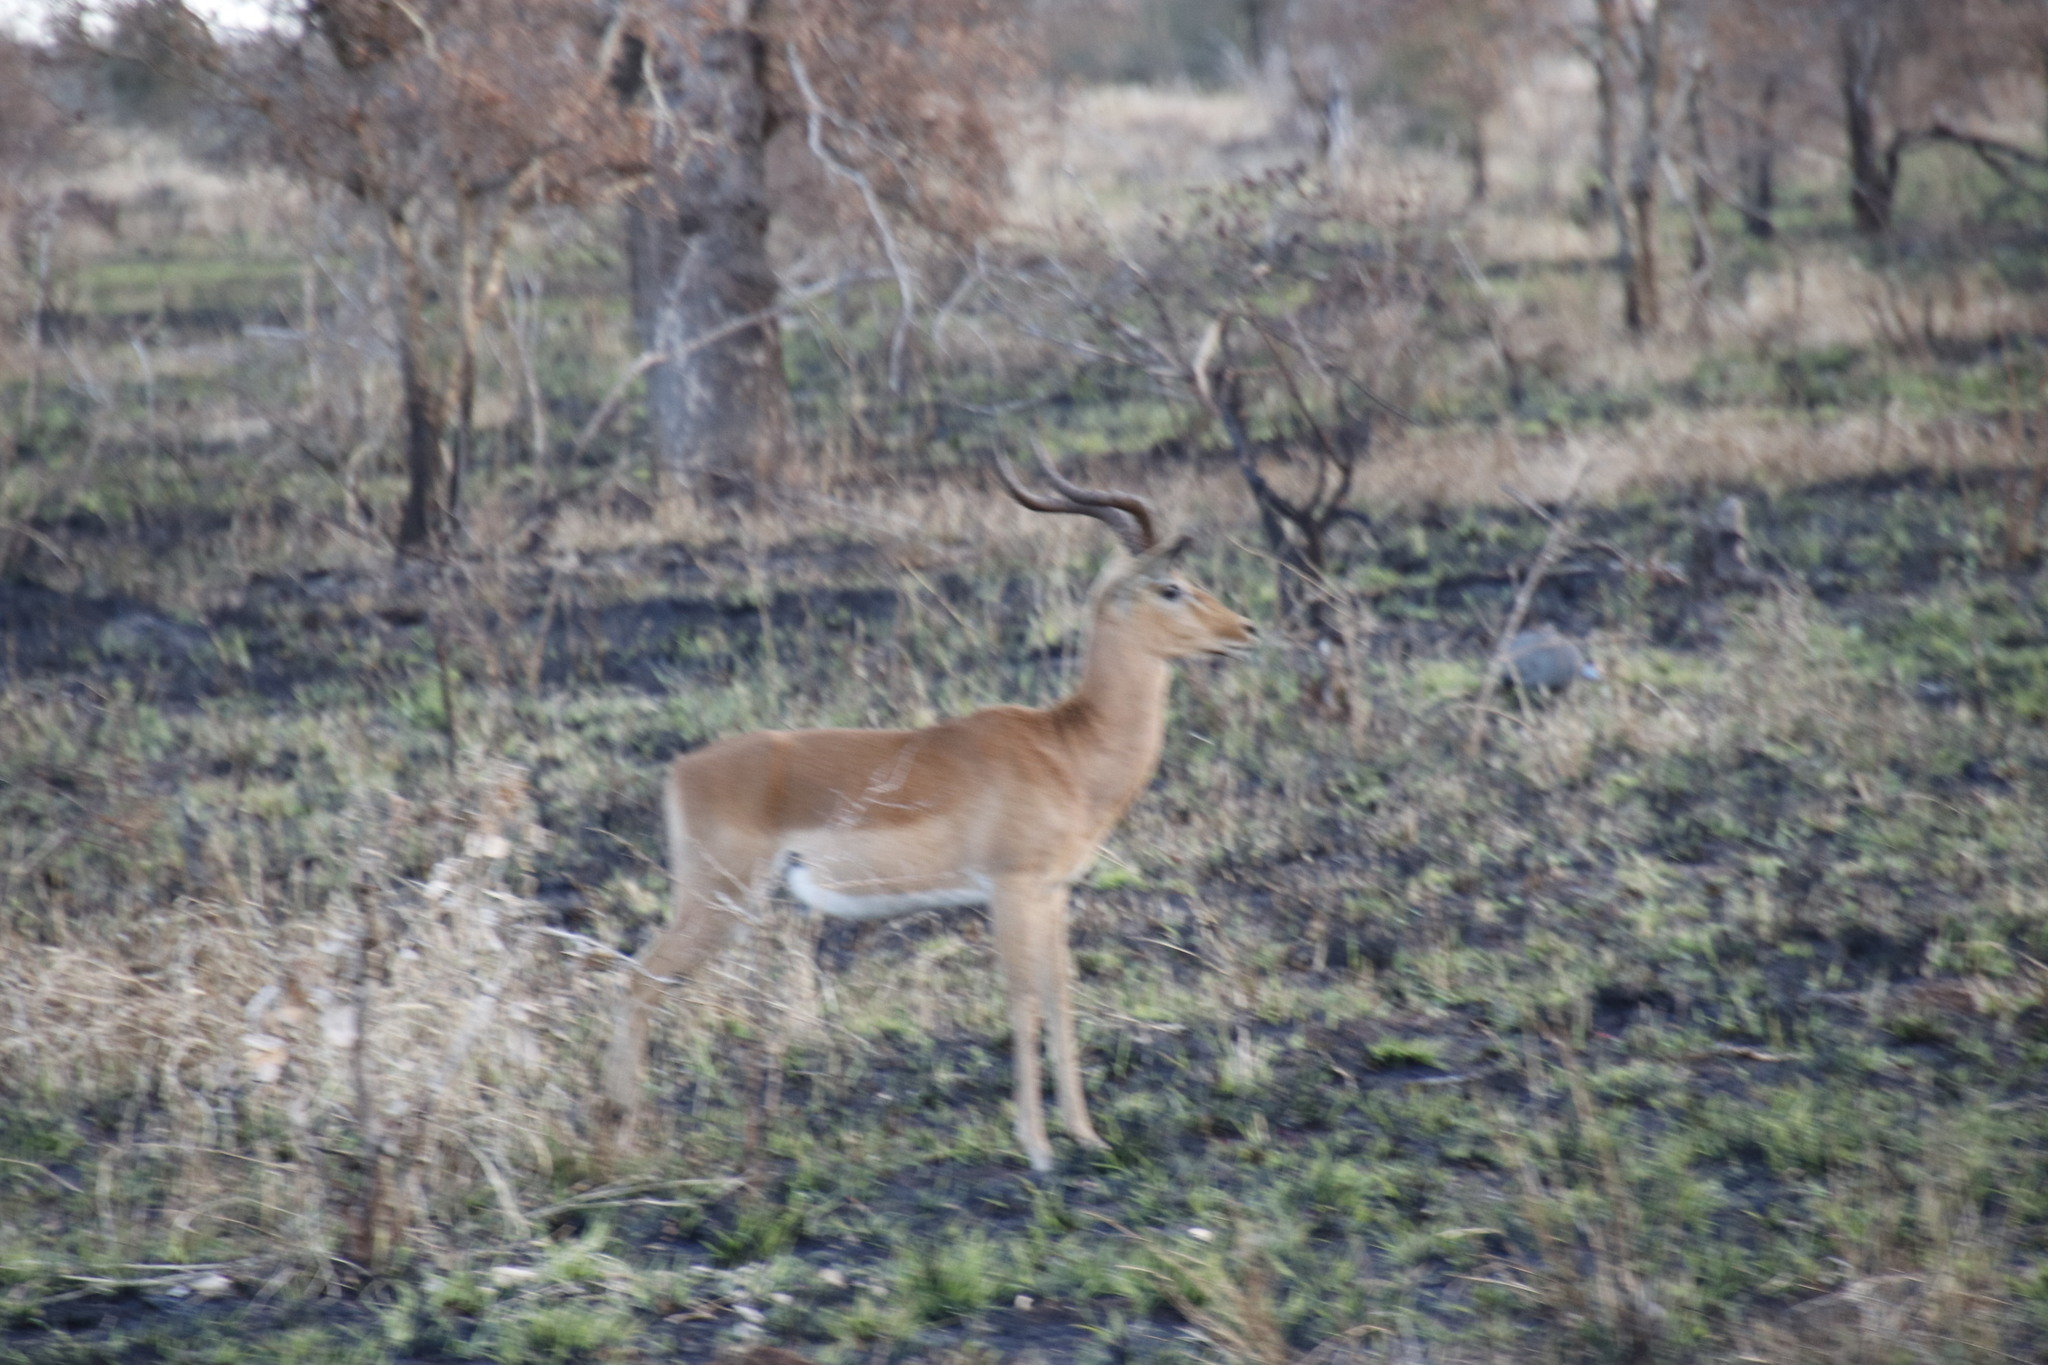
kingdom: Animalia
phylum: Chordata
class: Mammalia
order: Artiodactyla
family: Bovidae
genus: Aepyceros
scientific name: Aepyceros melampus
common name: Impala
